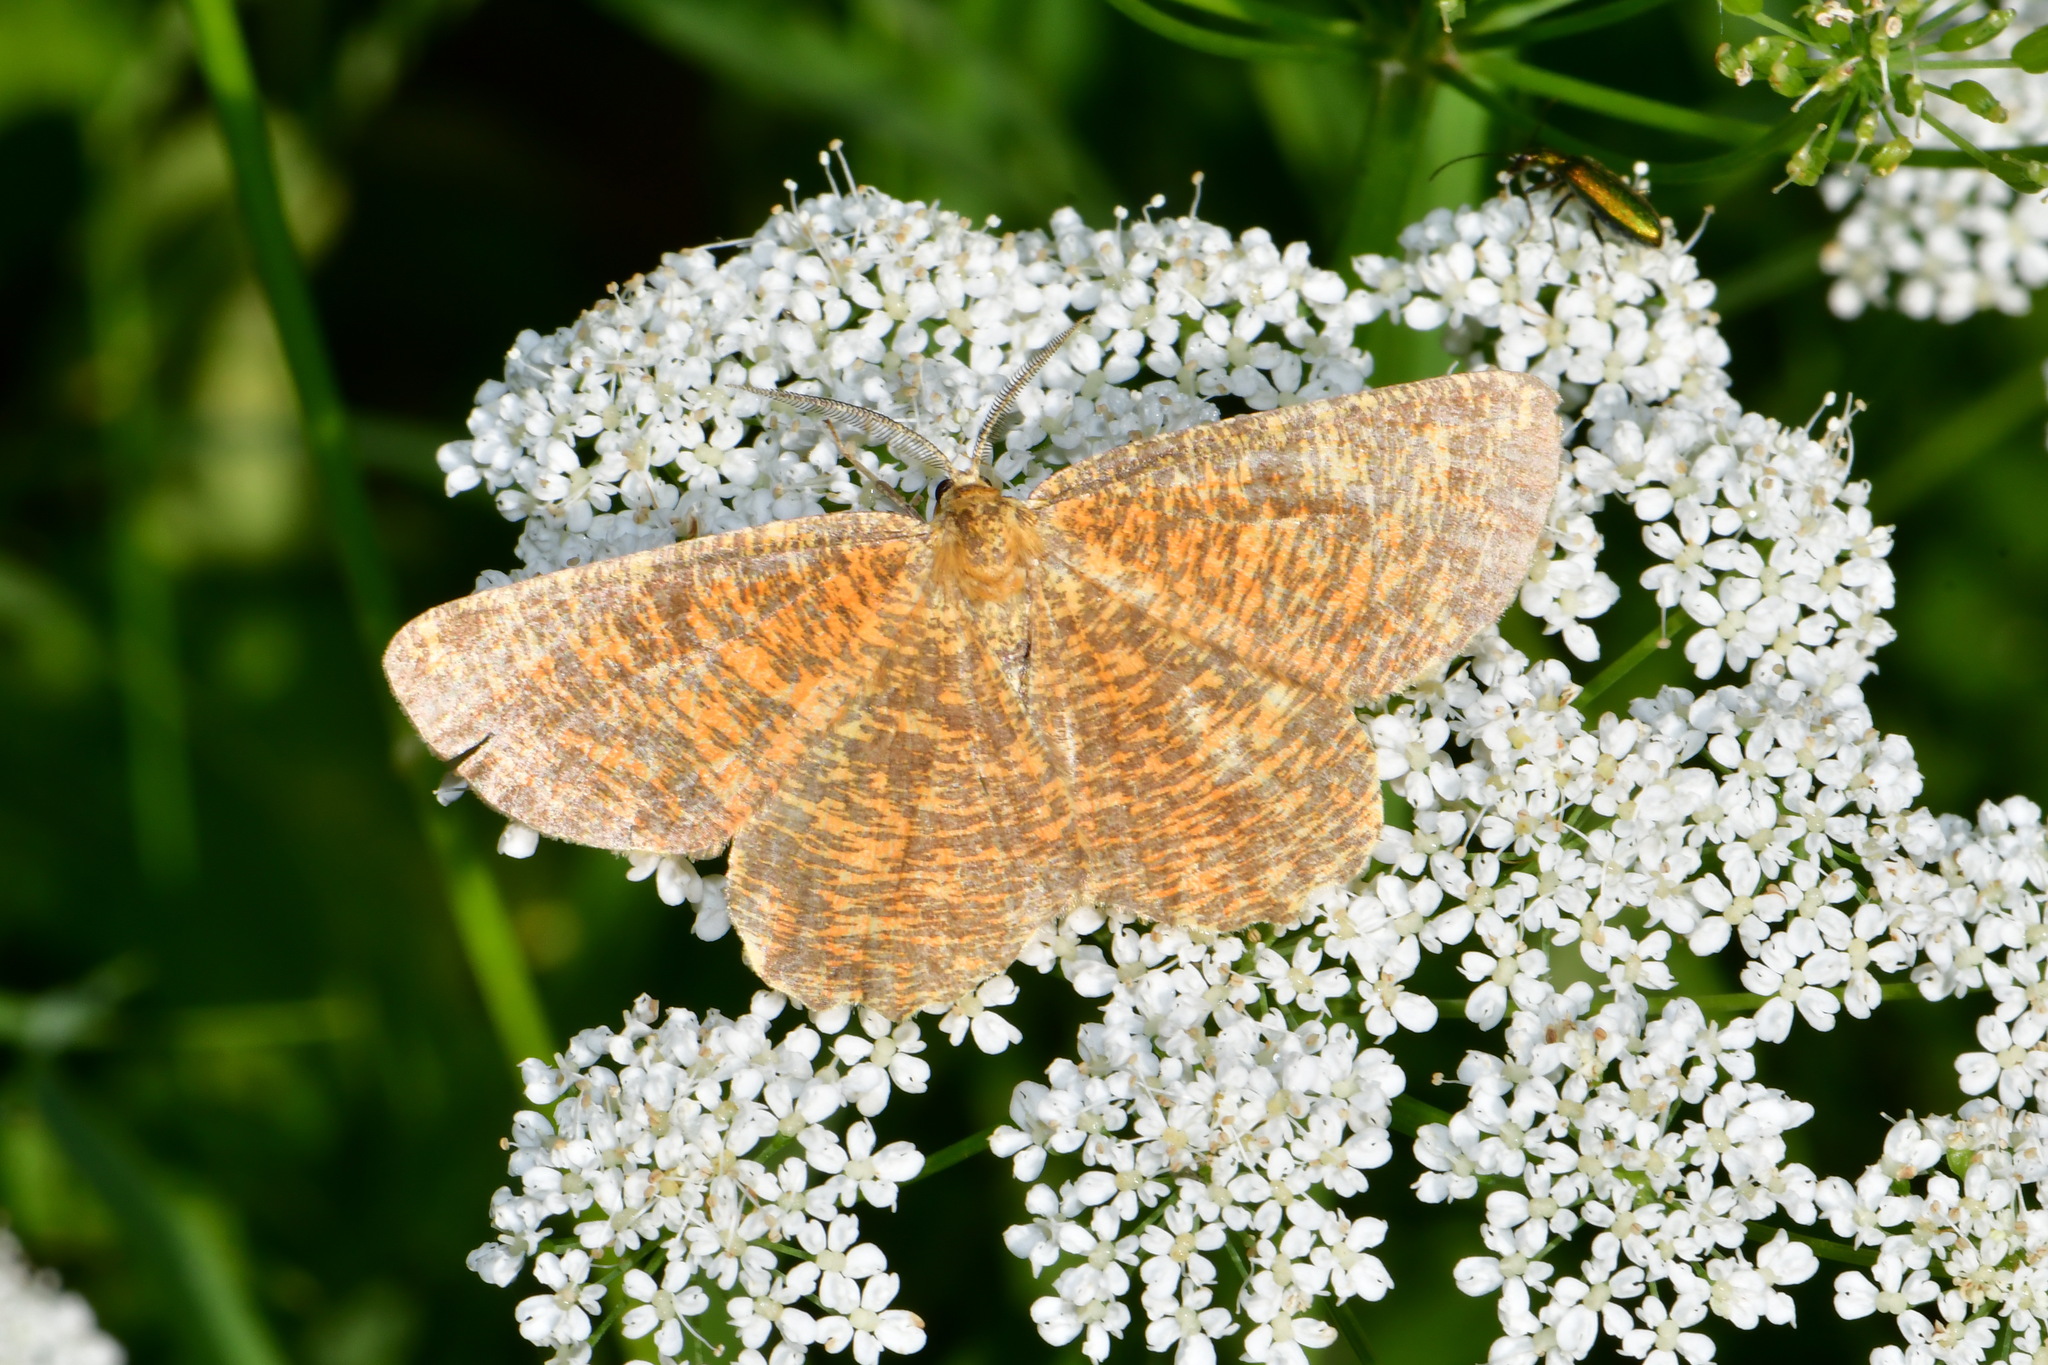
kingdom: Animalia
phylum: Arthropoda
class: Insecta
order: Lepidoptera
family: Geometridae
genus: Angerona
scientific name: Angerona prunaria
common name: Orange moth
